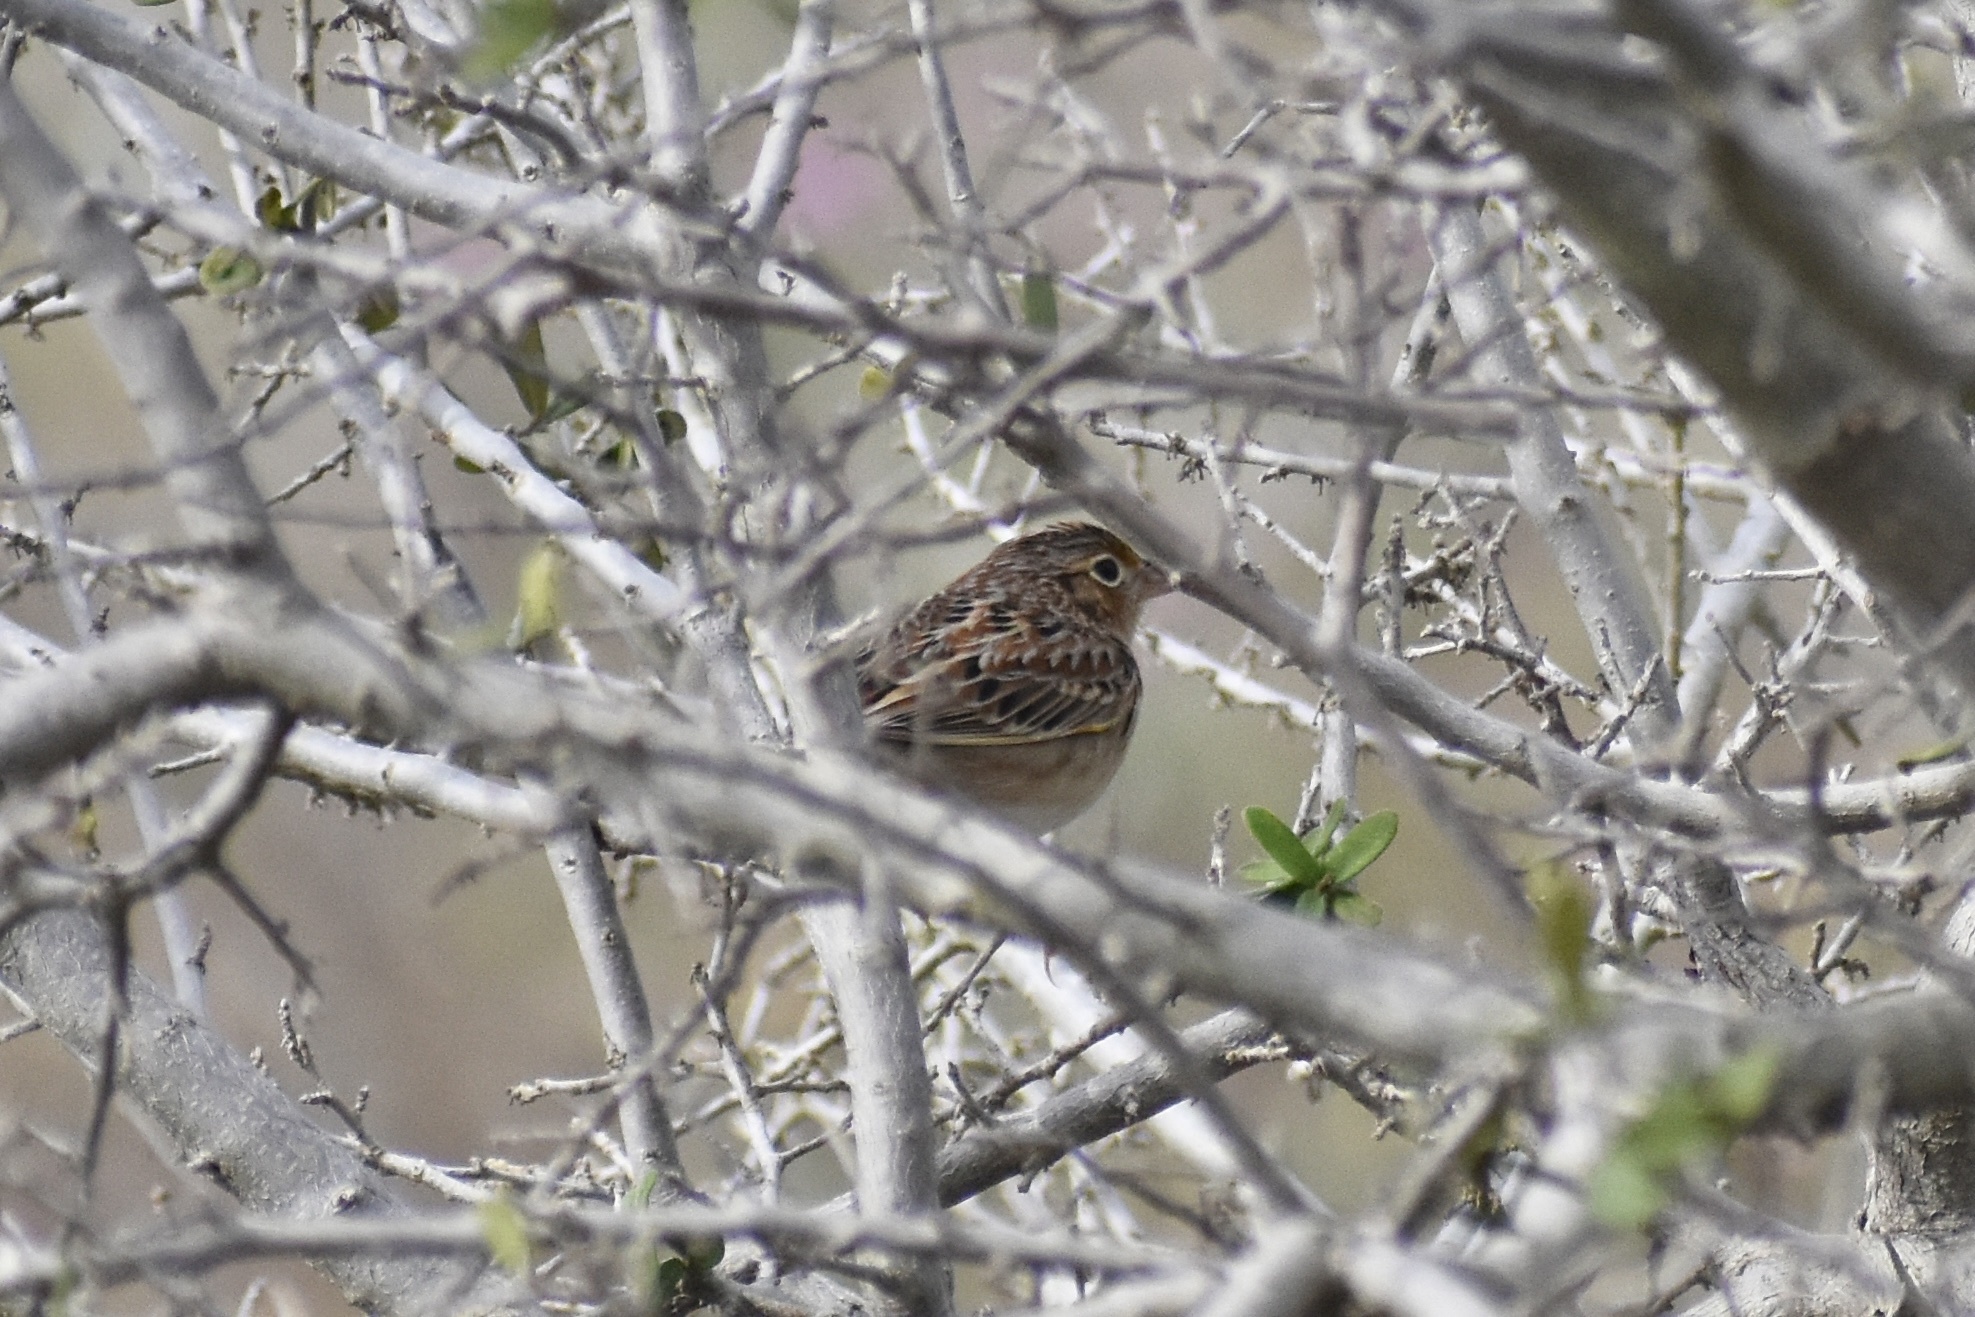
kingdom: Animalia
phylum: Chordata
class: Aves
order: Passeriformes
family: Passerellidae
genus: Ammodramus
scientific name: Ammodramus savannarum
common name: Grasshopper sparrow
